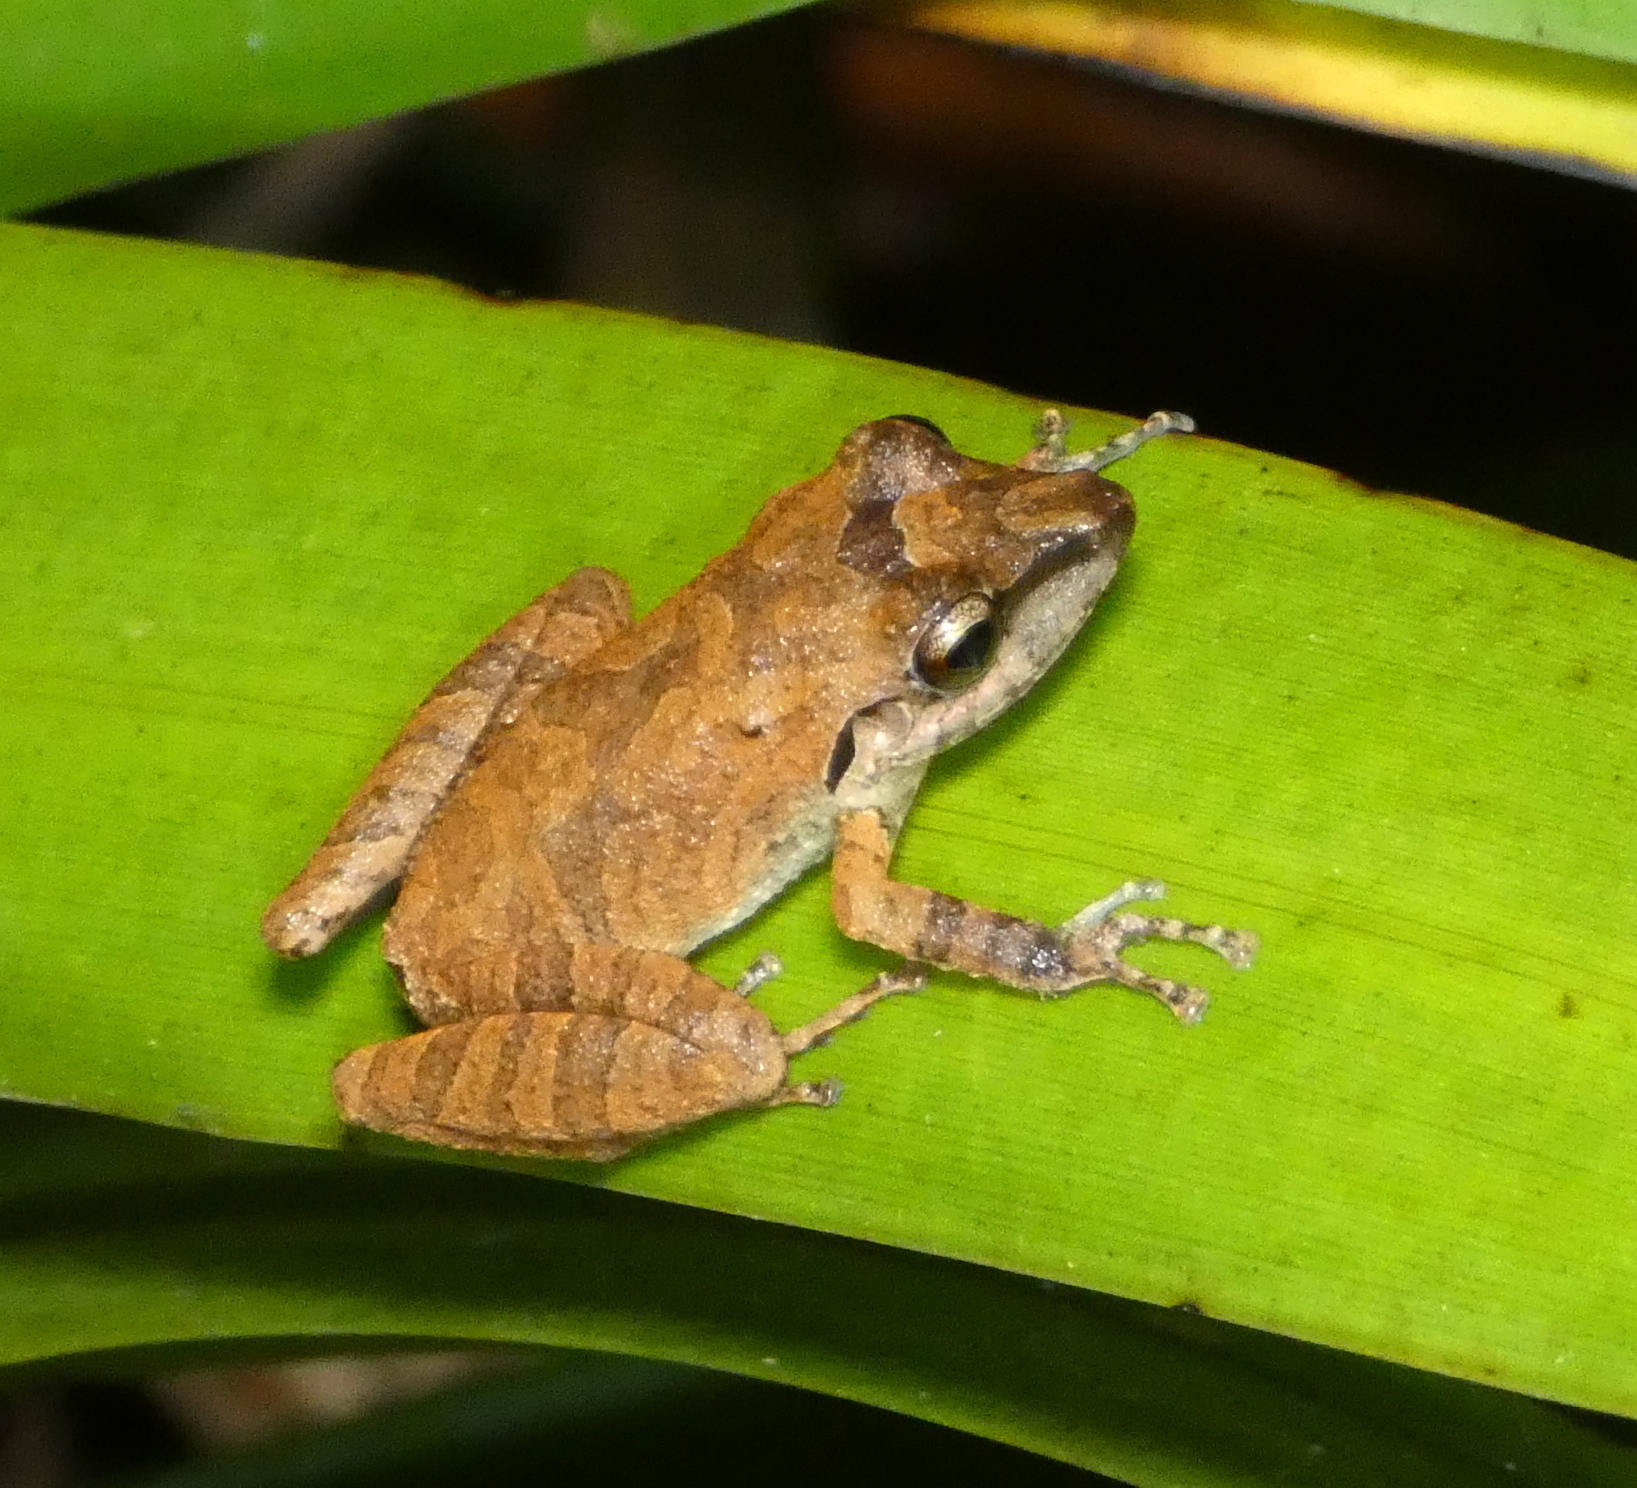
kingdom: Animalia
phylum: Chordata
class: Amphibia
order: Anura
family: Craugastoridae
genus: Pristimantis
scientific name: Pristimantis ramagii
